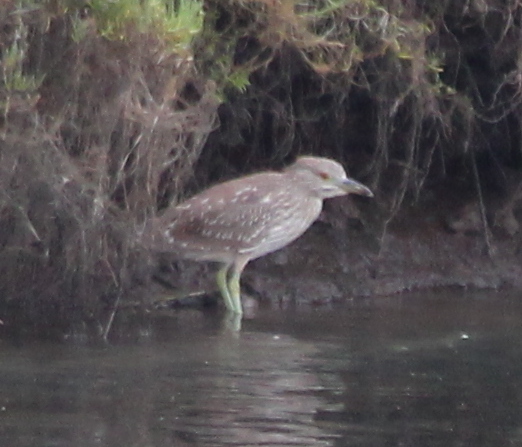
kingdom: Animalia
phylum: Chordata
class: Aves
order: Pelecaniformes
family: Ardeidae
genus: Nycticorax
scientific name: Nycticorax nycticorax
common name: Black-crowned night heron
